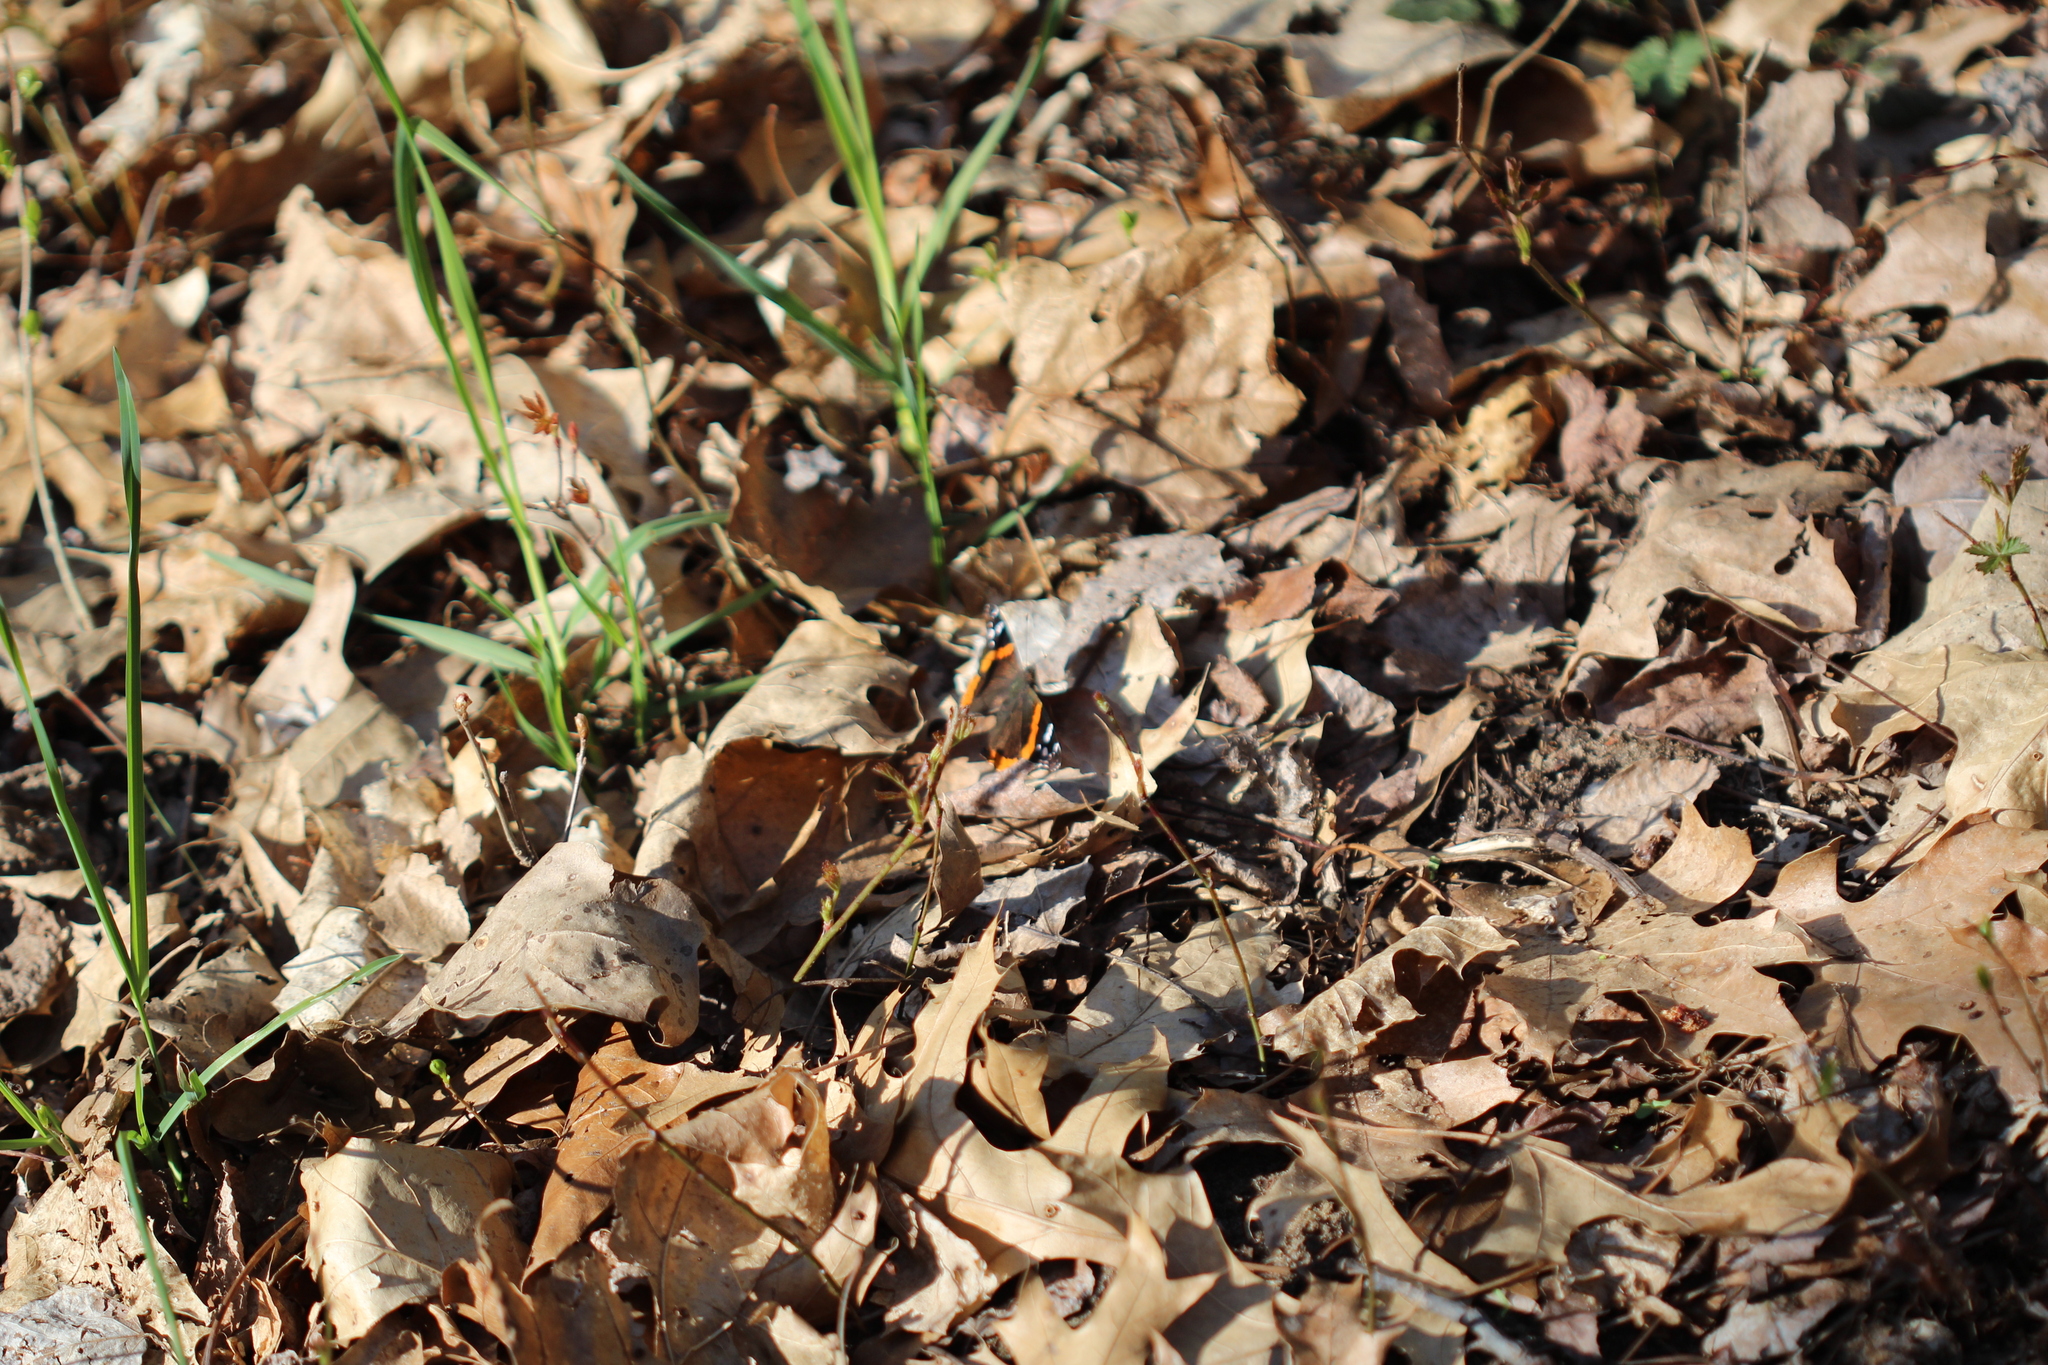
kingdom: Animalia
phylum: Arthropoda
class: Insecta
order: Lepidoptera
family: Nymphalidae
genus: Vanessa
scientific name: Vanessa atalanta
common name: Red admiral
